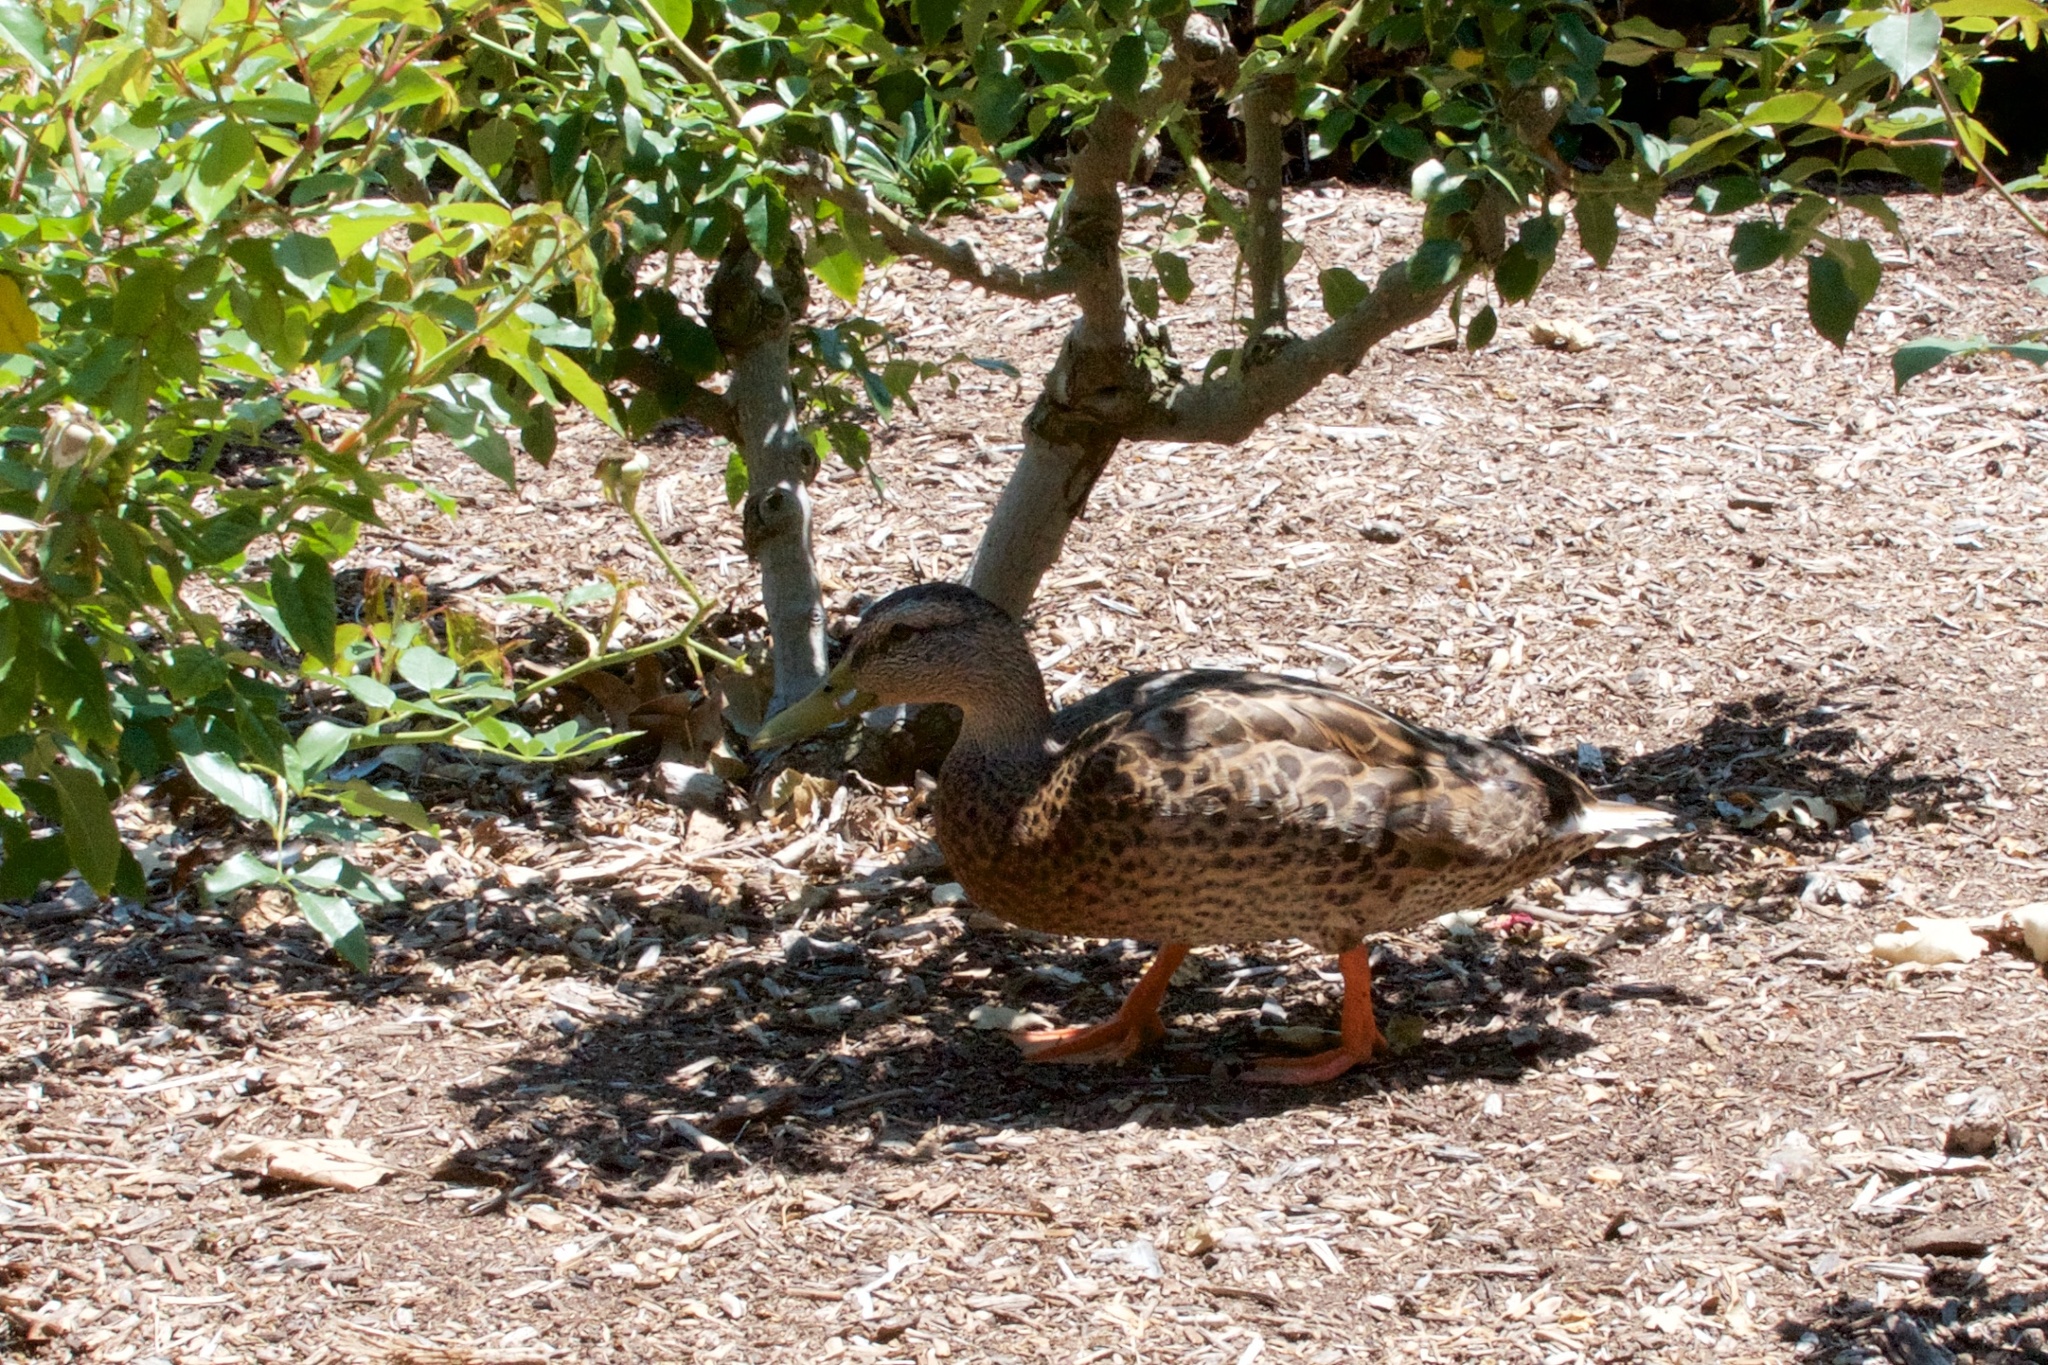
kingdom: Animalia
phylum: Chordata
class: Aves
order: Anseriformes
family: Anatidae
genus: Anas
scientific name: Anas platyrhynchos
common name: Mallard
